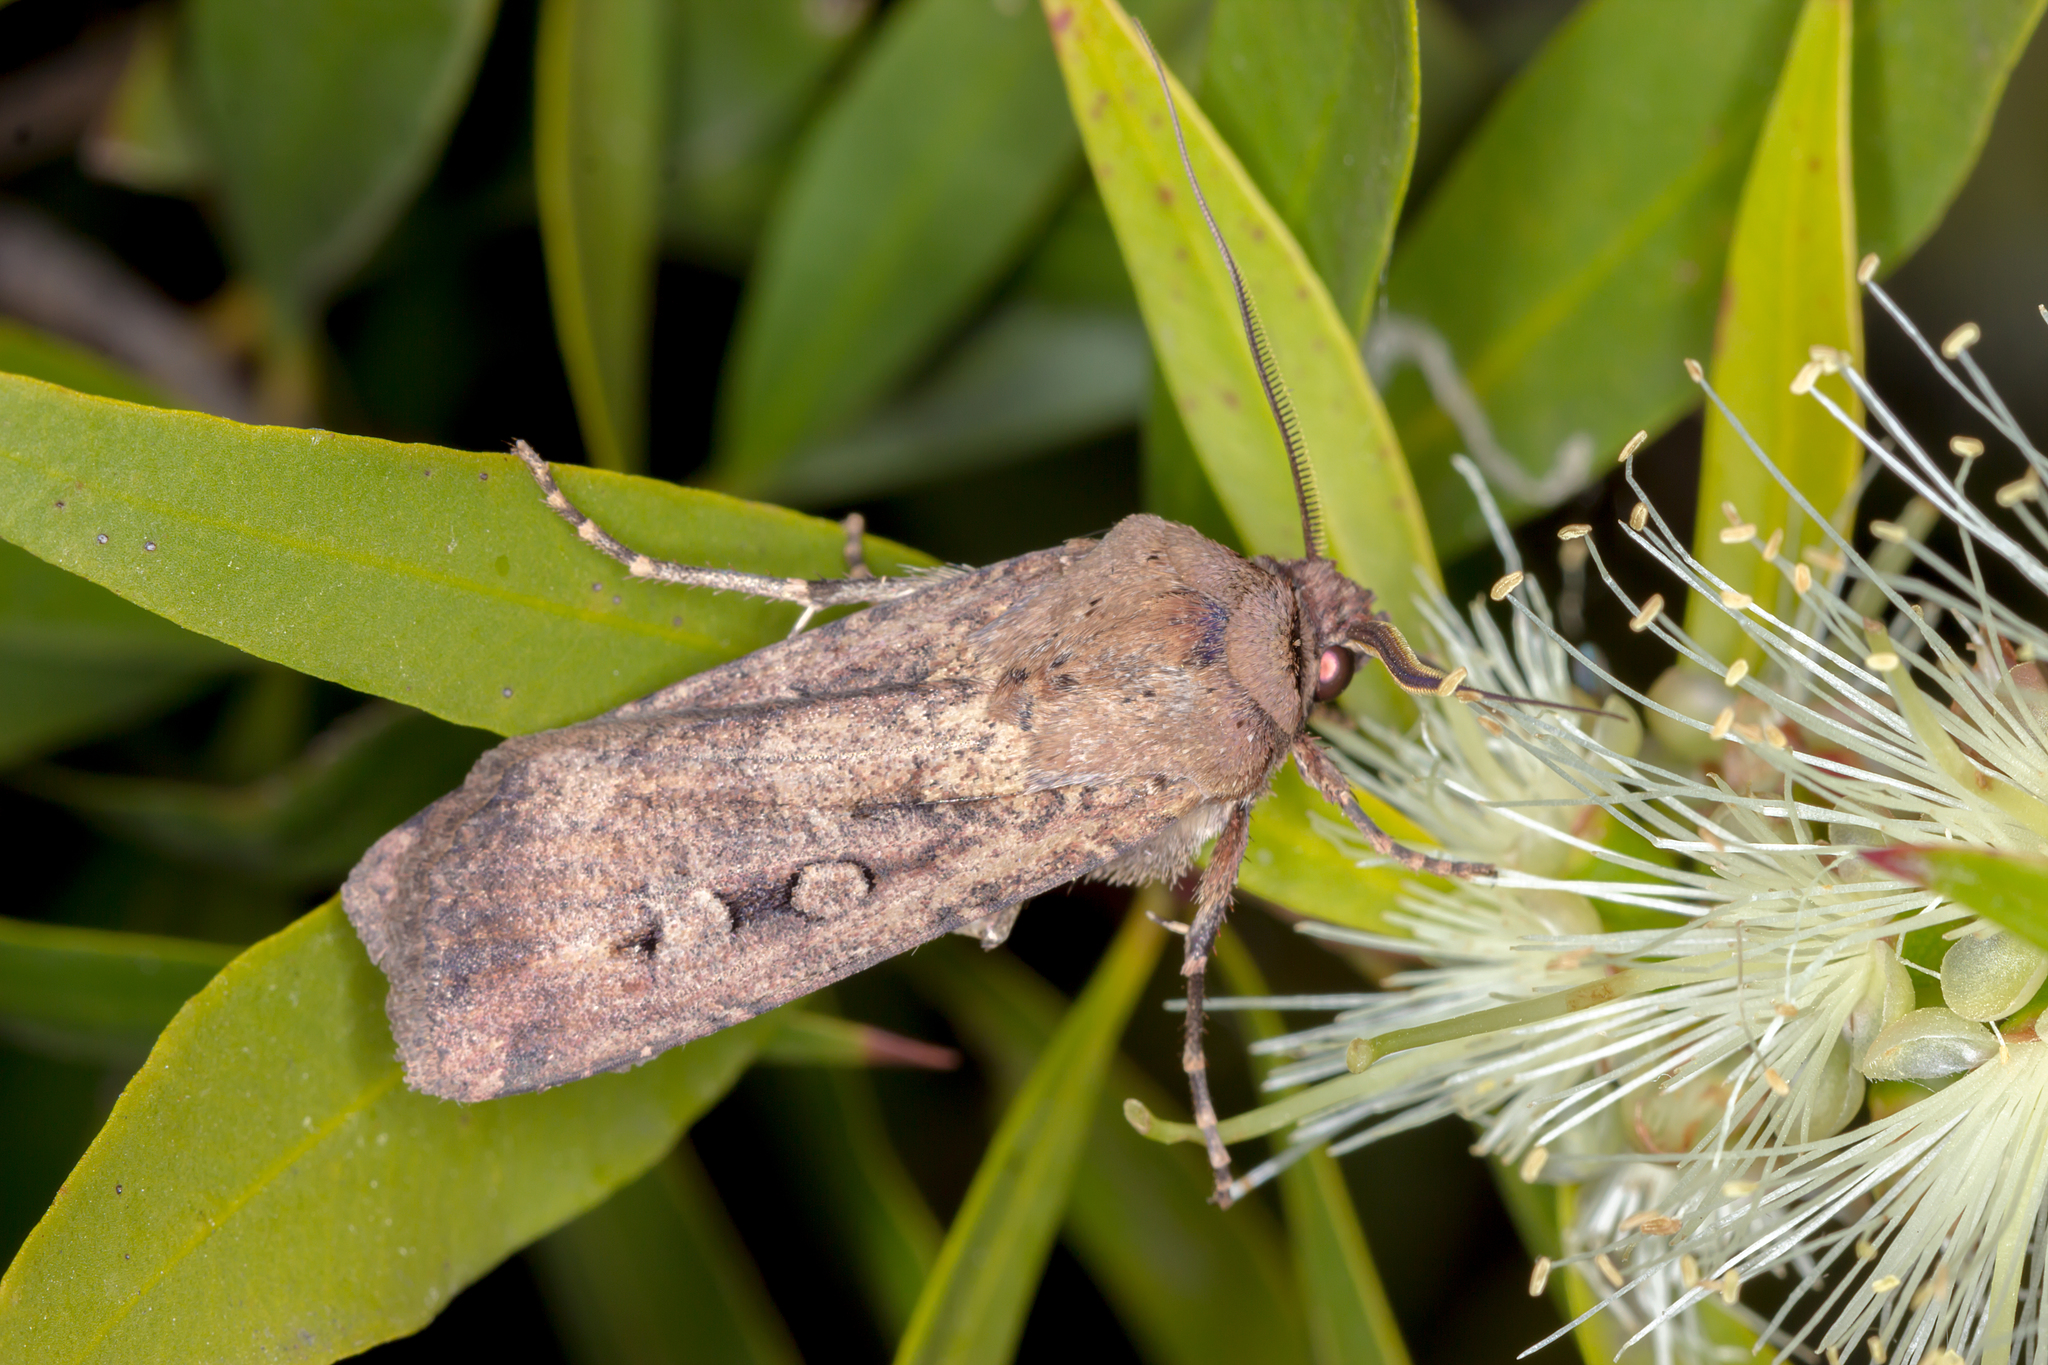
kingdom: Animalia
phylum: Arthropoda
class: Insecta
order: Lepidoptera
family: Noctuidae
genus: Agrotis
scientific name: Agrotis infusa
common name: Bogong moth
